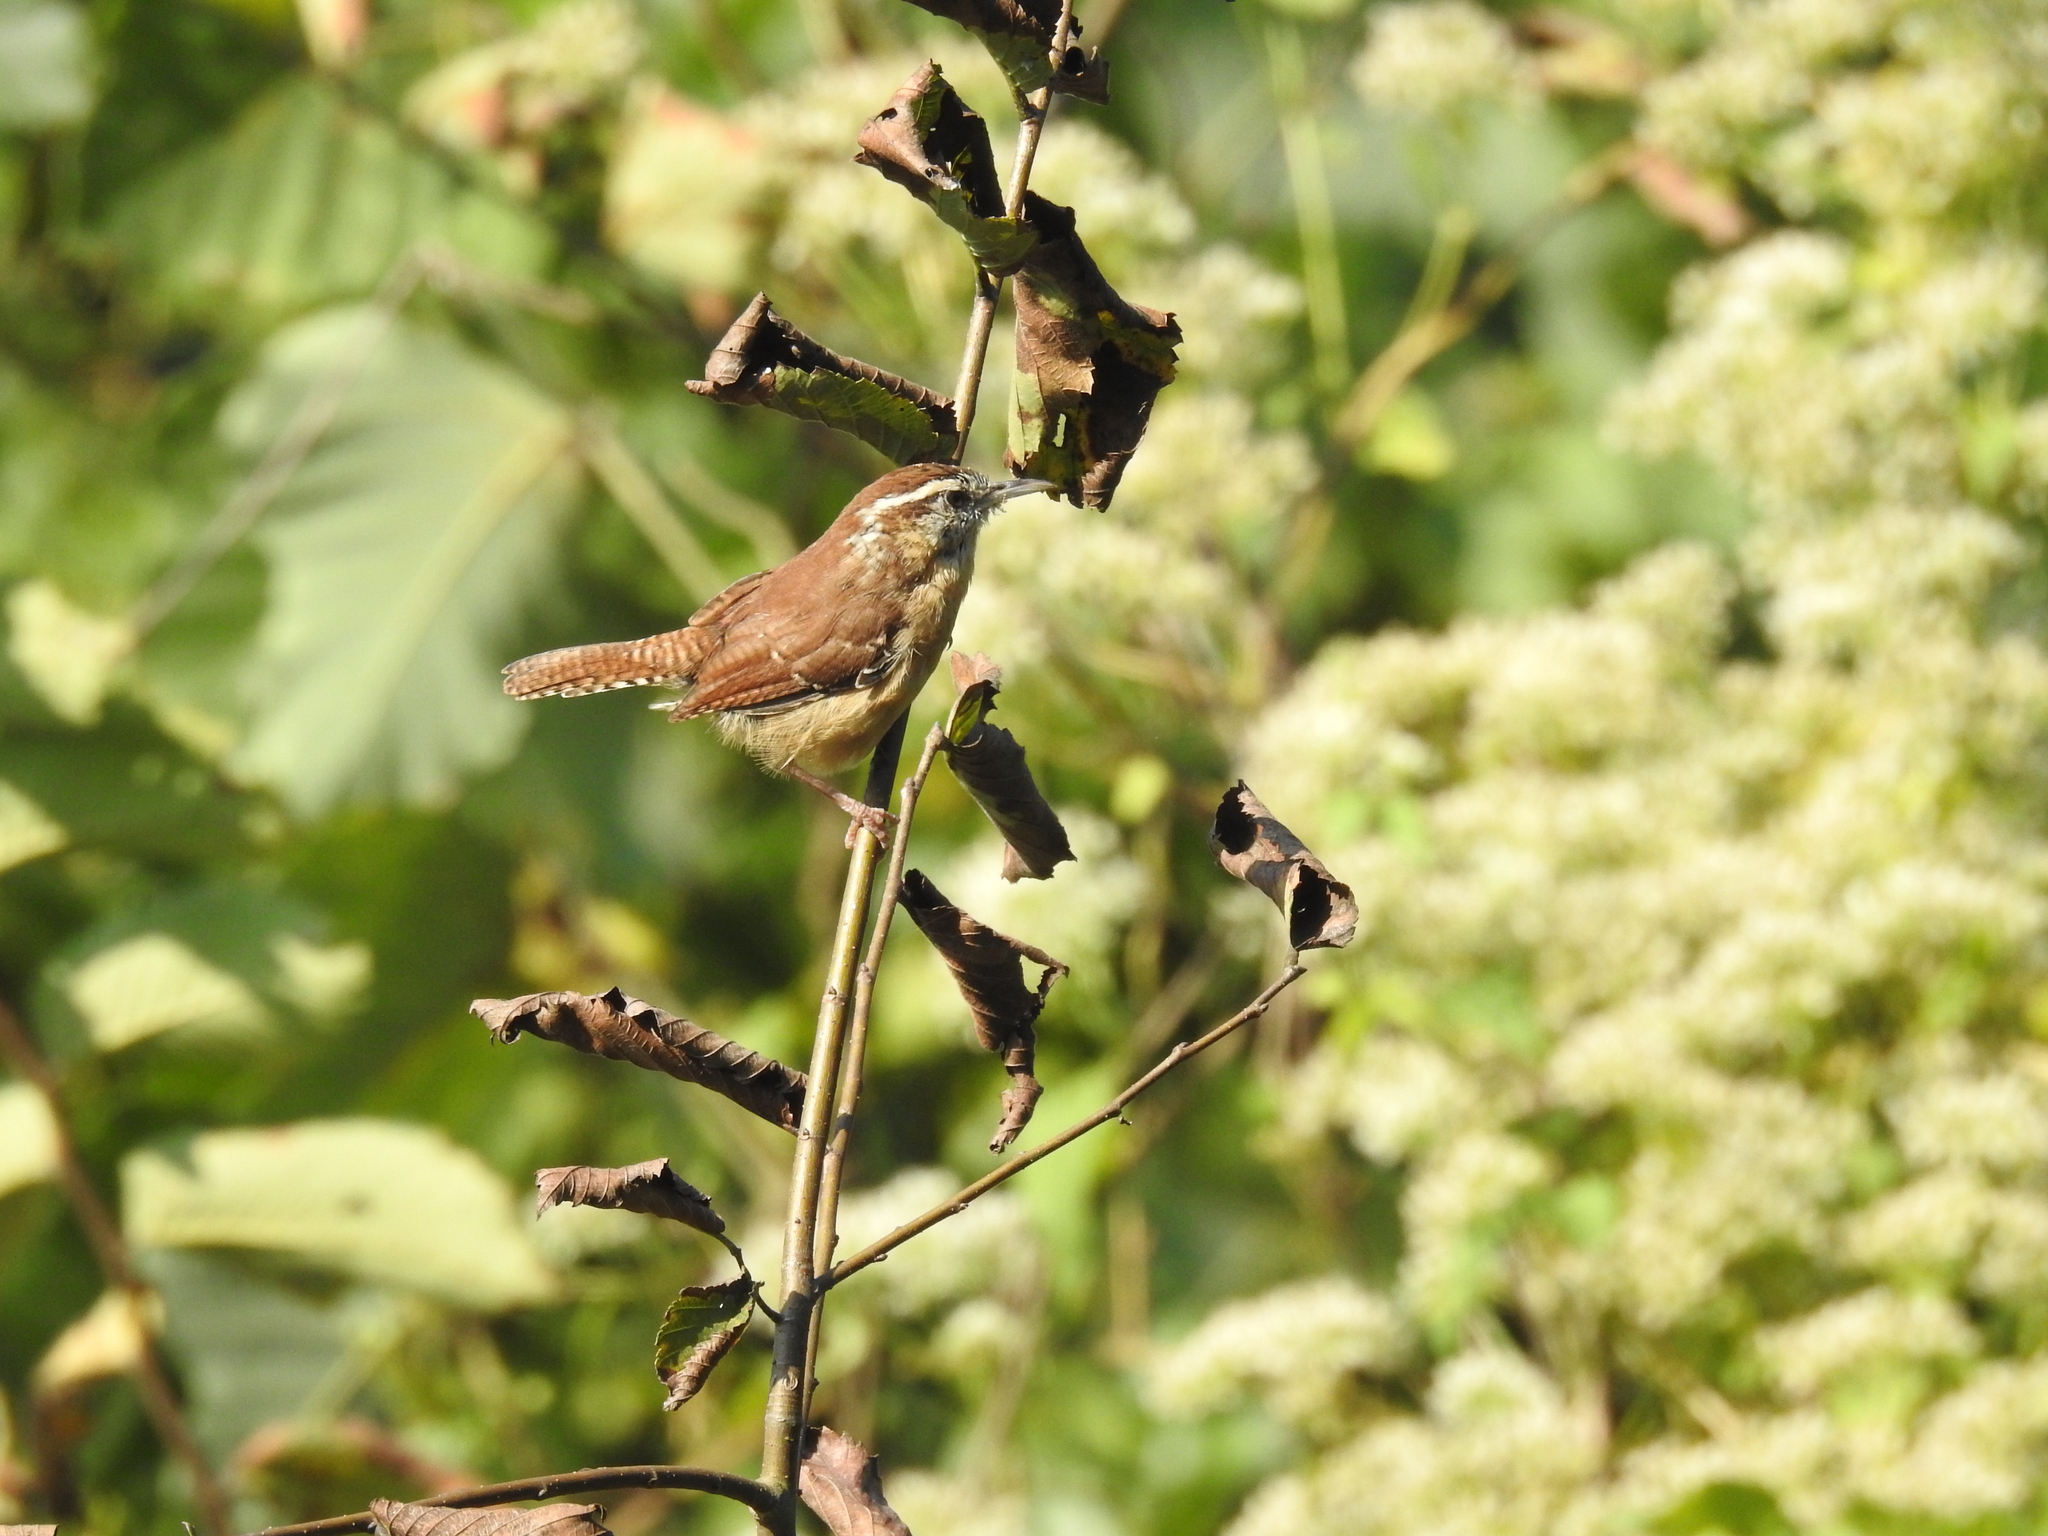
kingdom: Animalia
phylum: Chordata
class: Aves
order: Passeriformes
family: Troglodytidae
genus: Thryothorus
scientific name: Thryothorus ludovicianus
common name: Carolina wren
